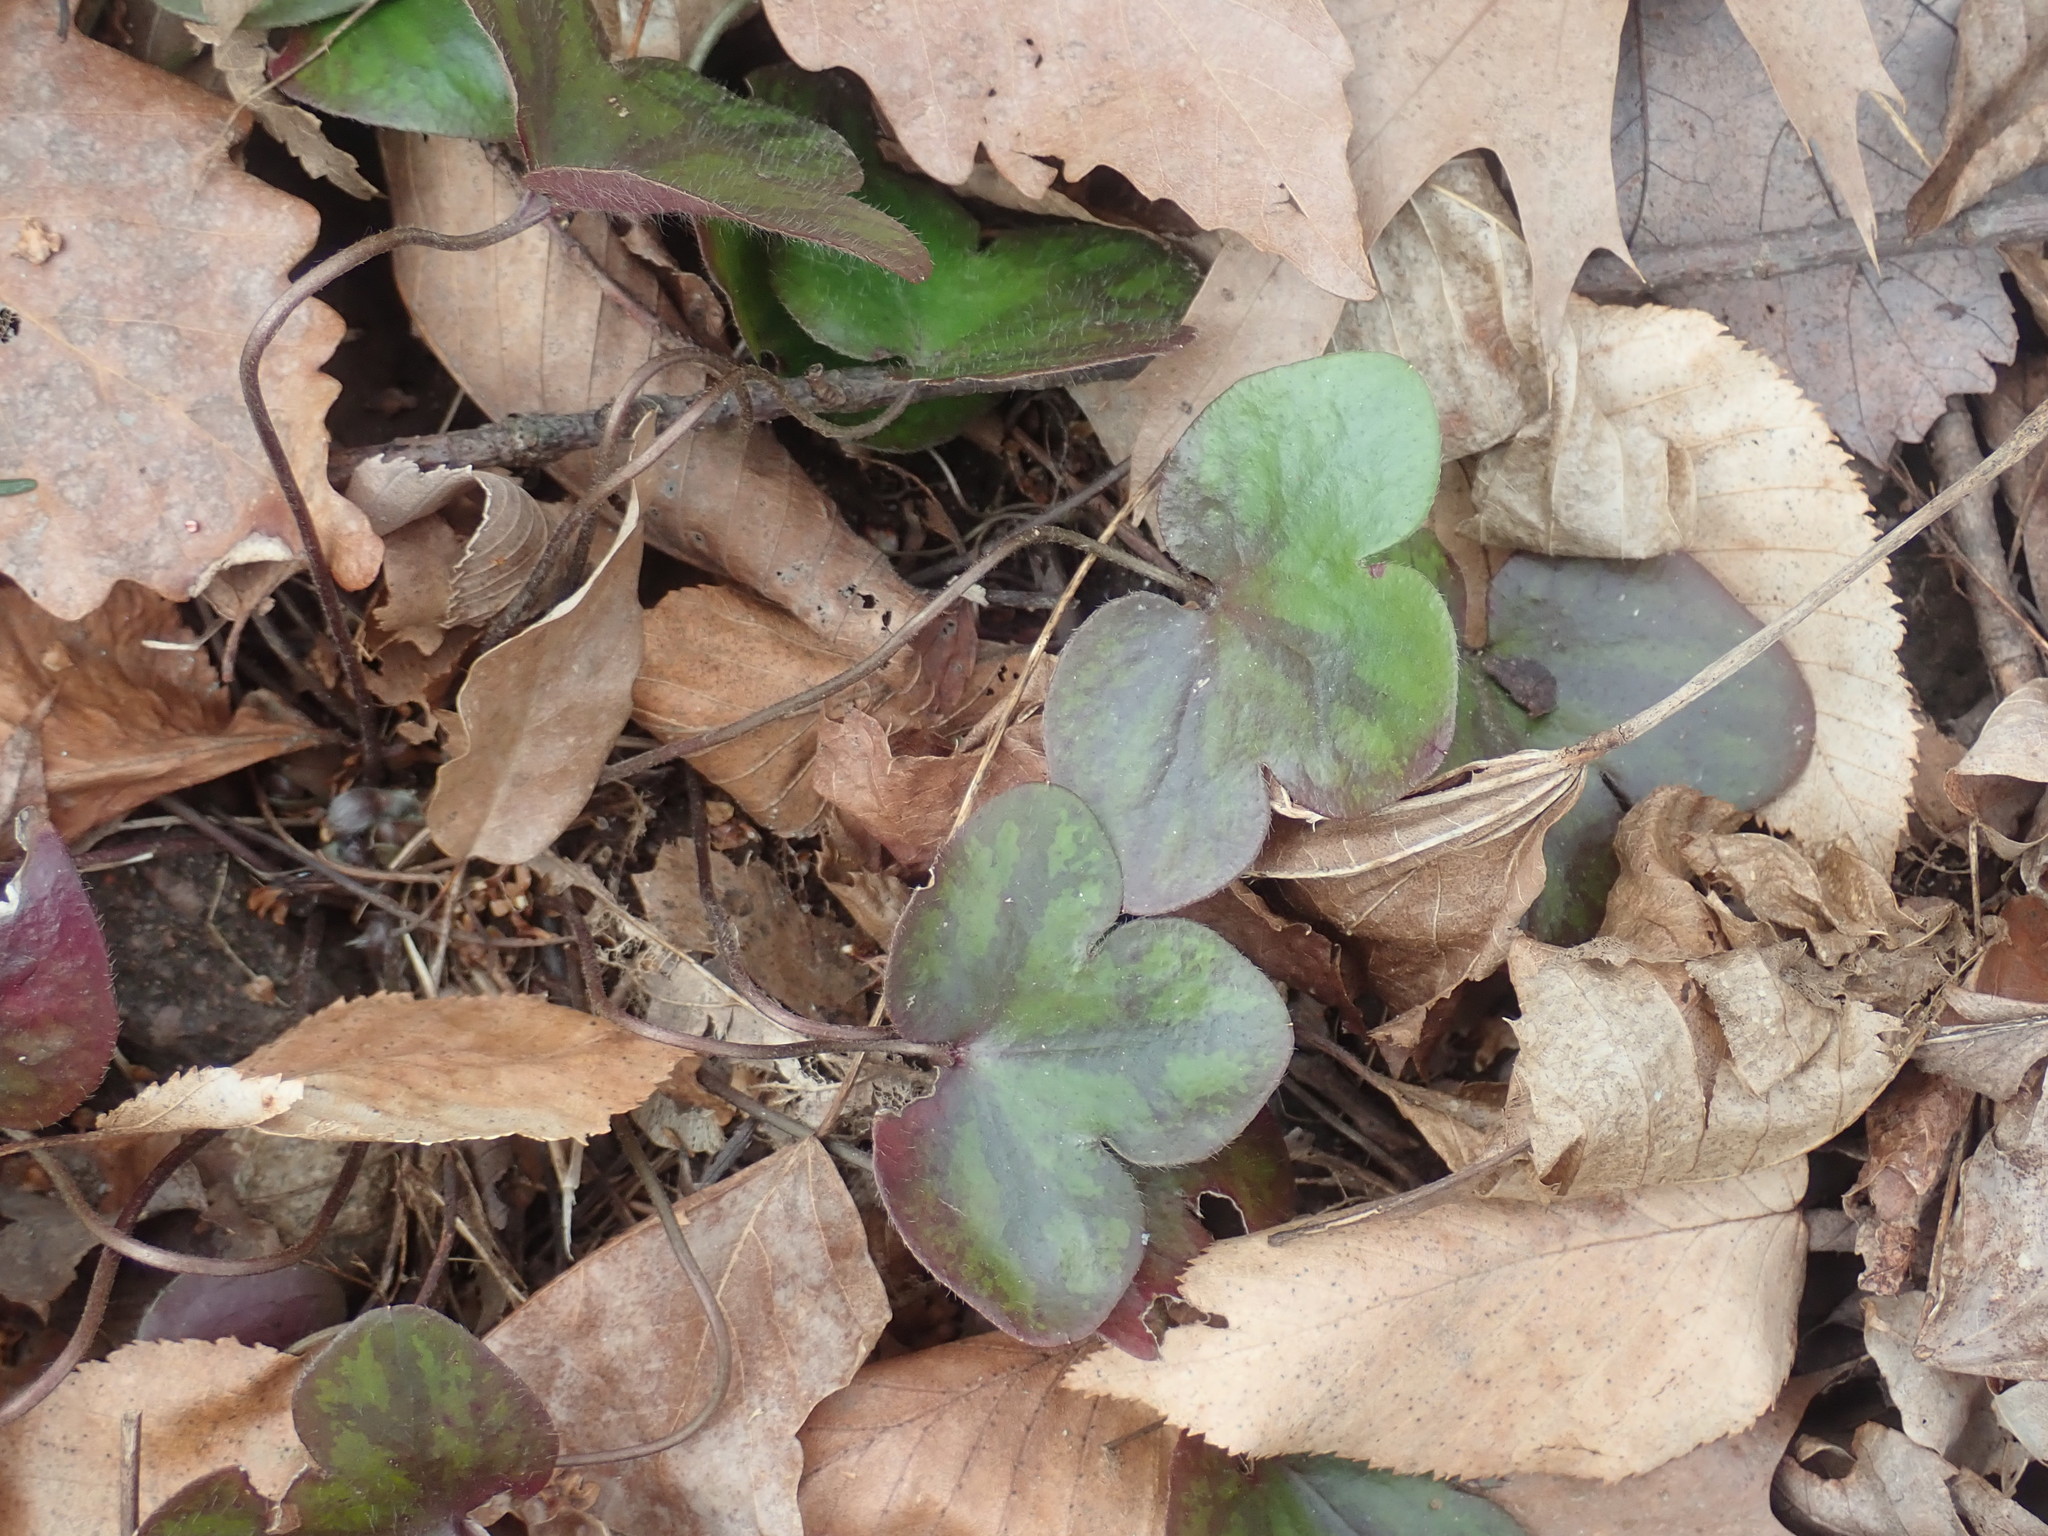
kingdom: Plantae
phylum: Tracheophyta
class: Magnoliopsida
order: Ranunculales
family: Ranunculaceae
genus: Hepatica
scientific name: Hepatica americana
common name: American hepatica
